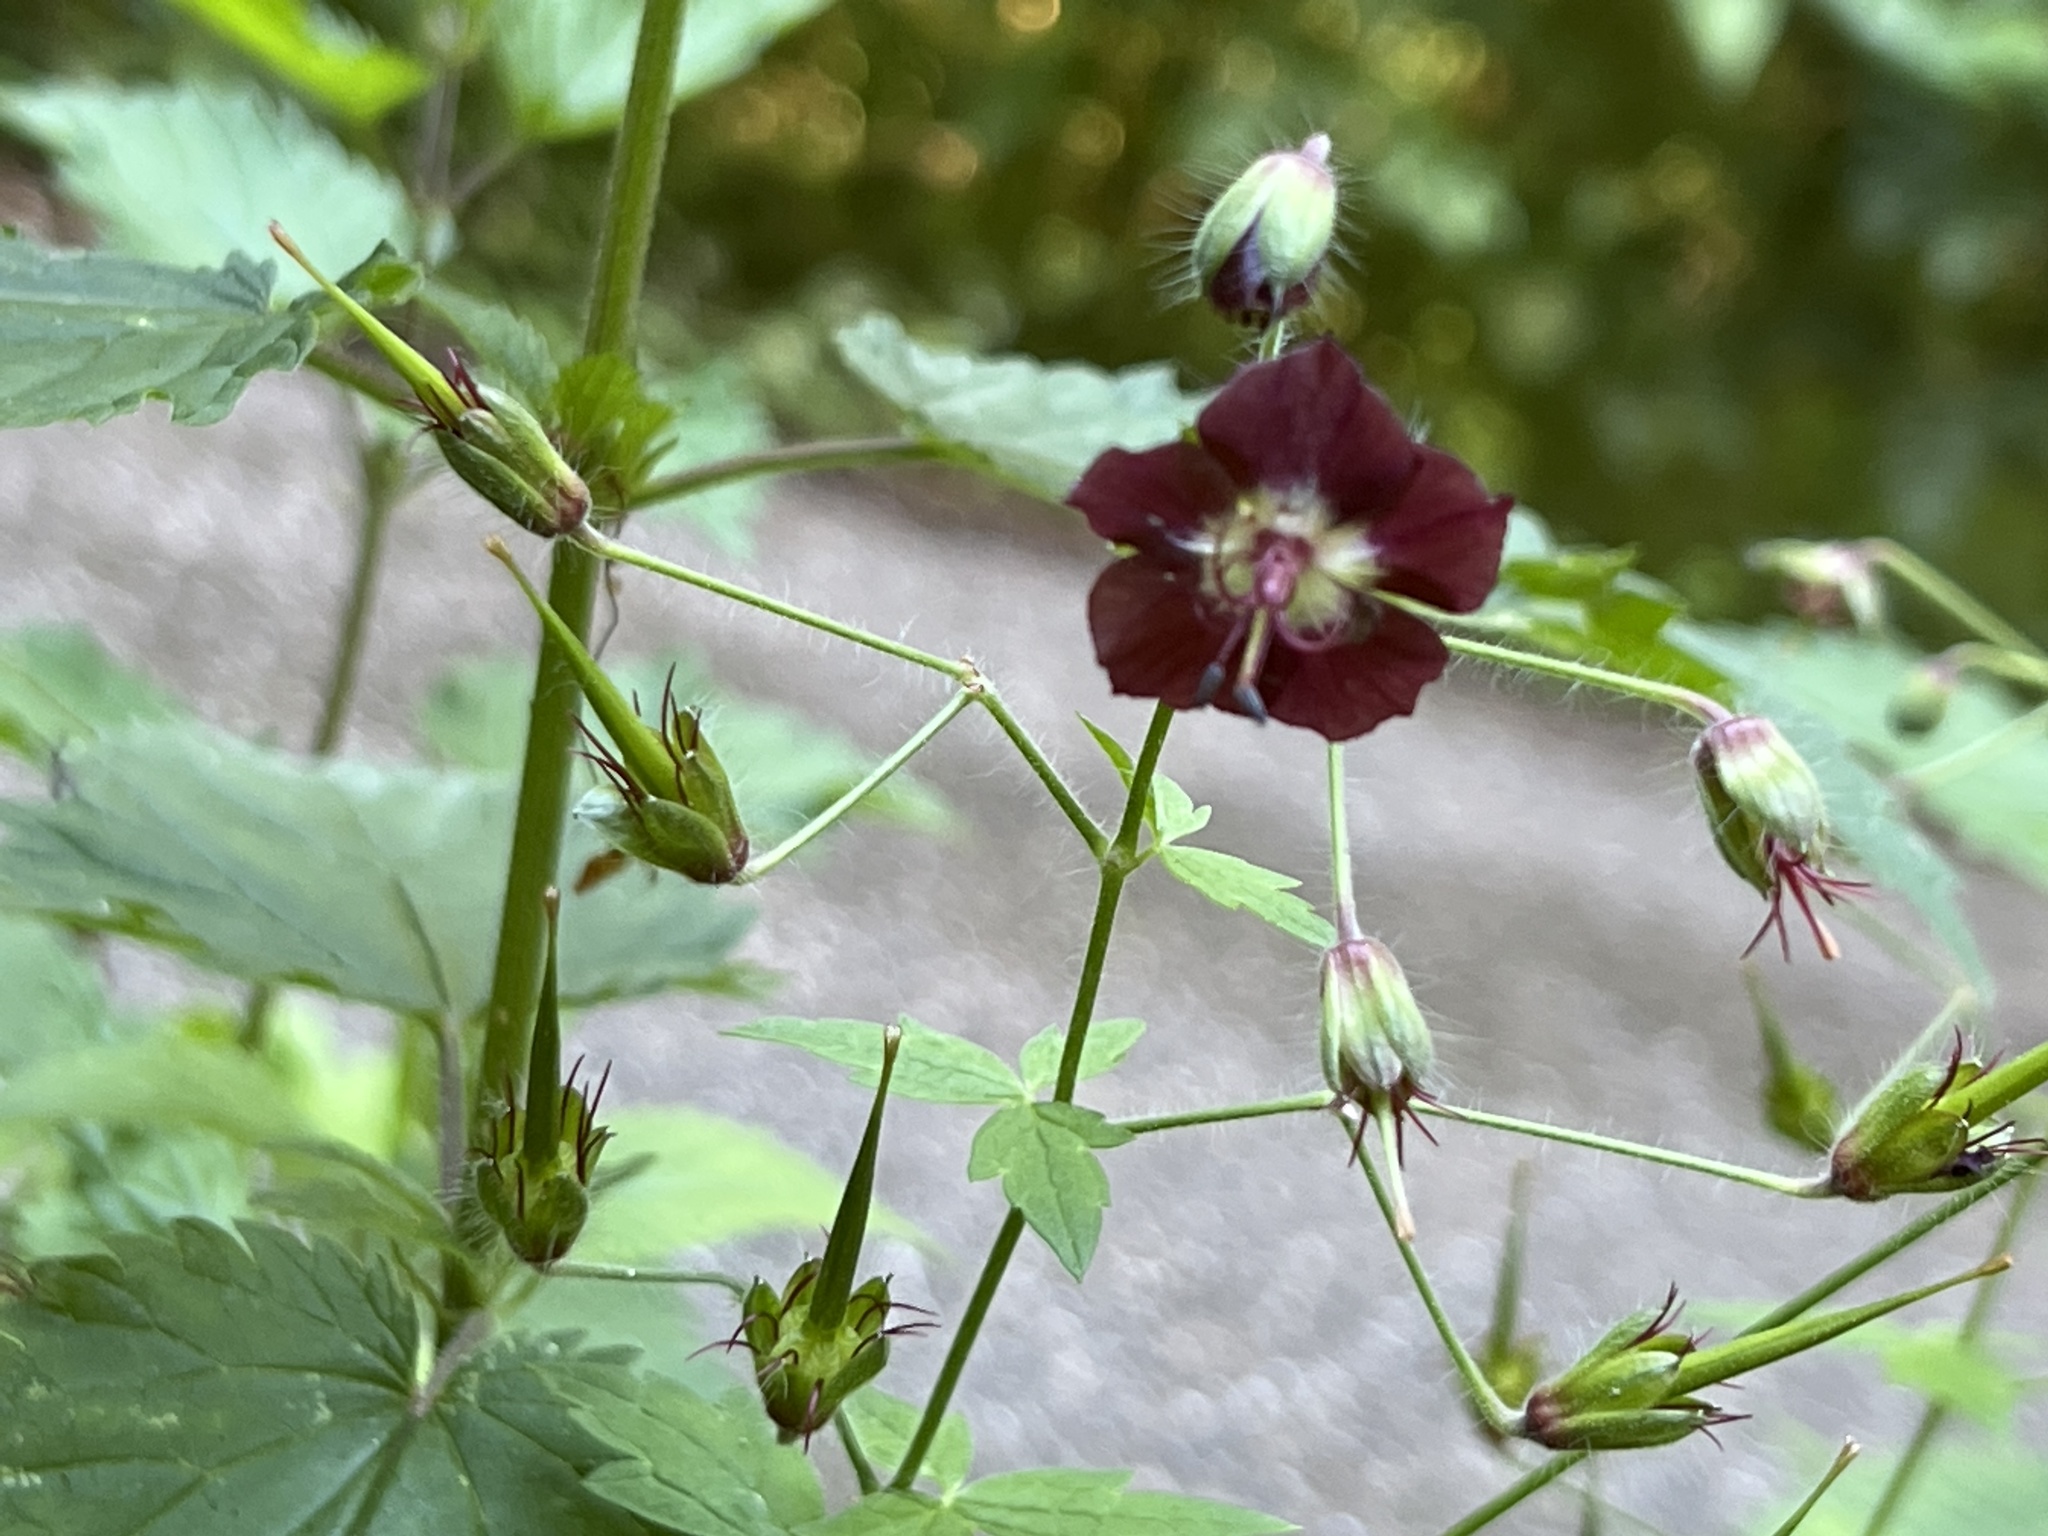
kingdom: Plantae
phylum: Tracheophyta
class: Magnoliopsida
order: Geraniales
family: Geraniaceae
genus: Geranium
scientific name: Geranium phaeum
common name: Dusky crane's-bill
